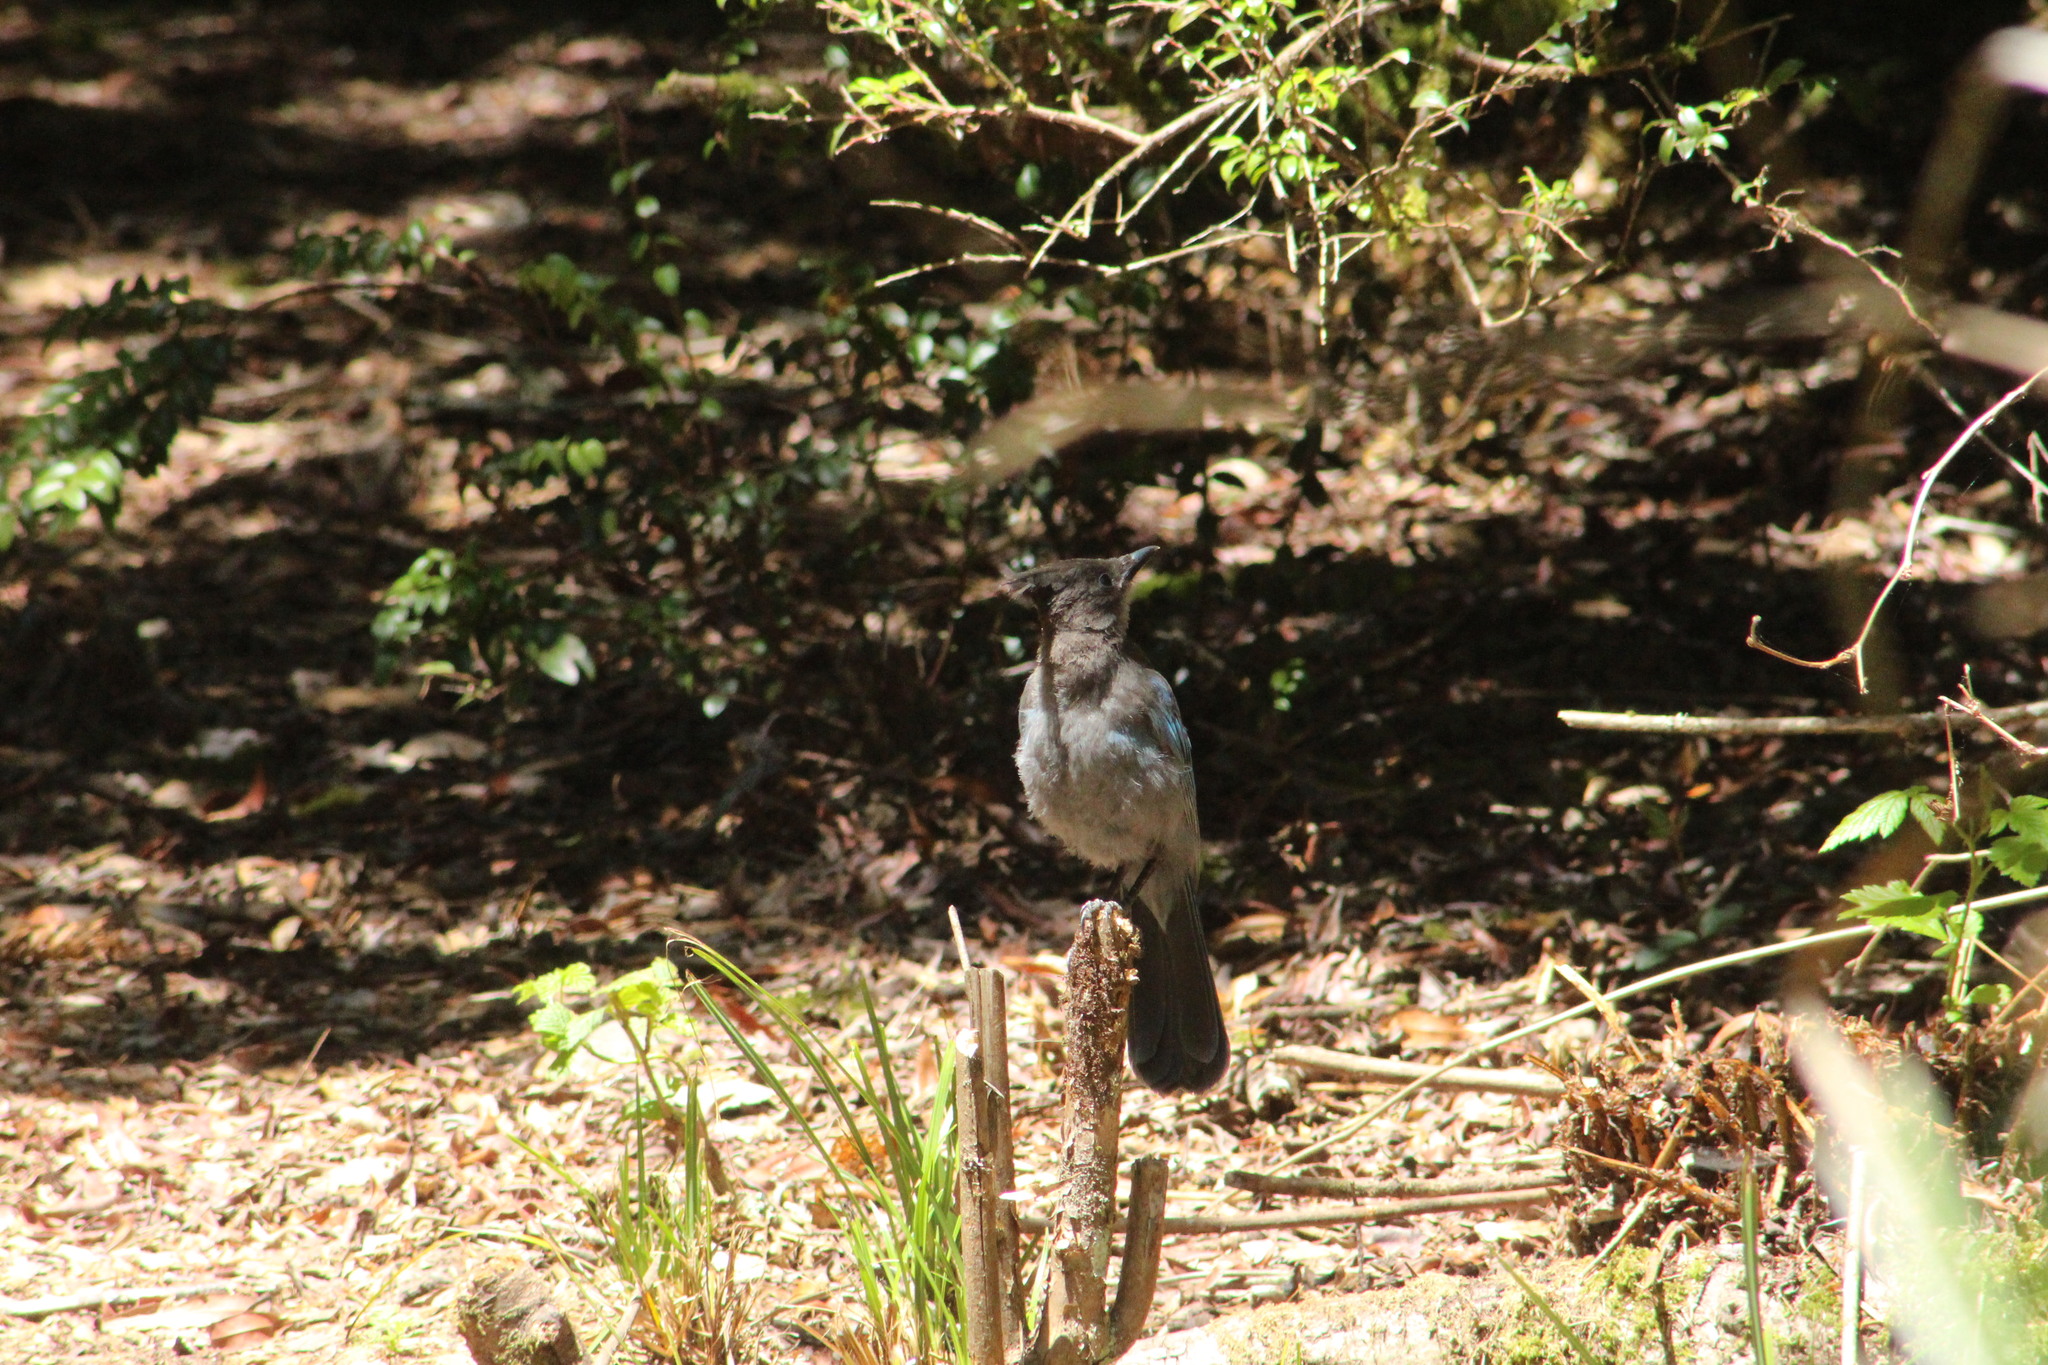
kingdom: Animalia
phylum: Chordata
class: Aves
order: Passeriformes
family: Corvidae
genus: Cyanocitta
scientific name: Cyanocitta stelleri
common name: Steller's jay
